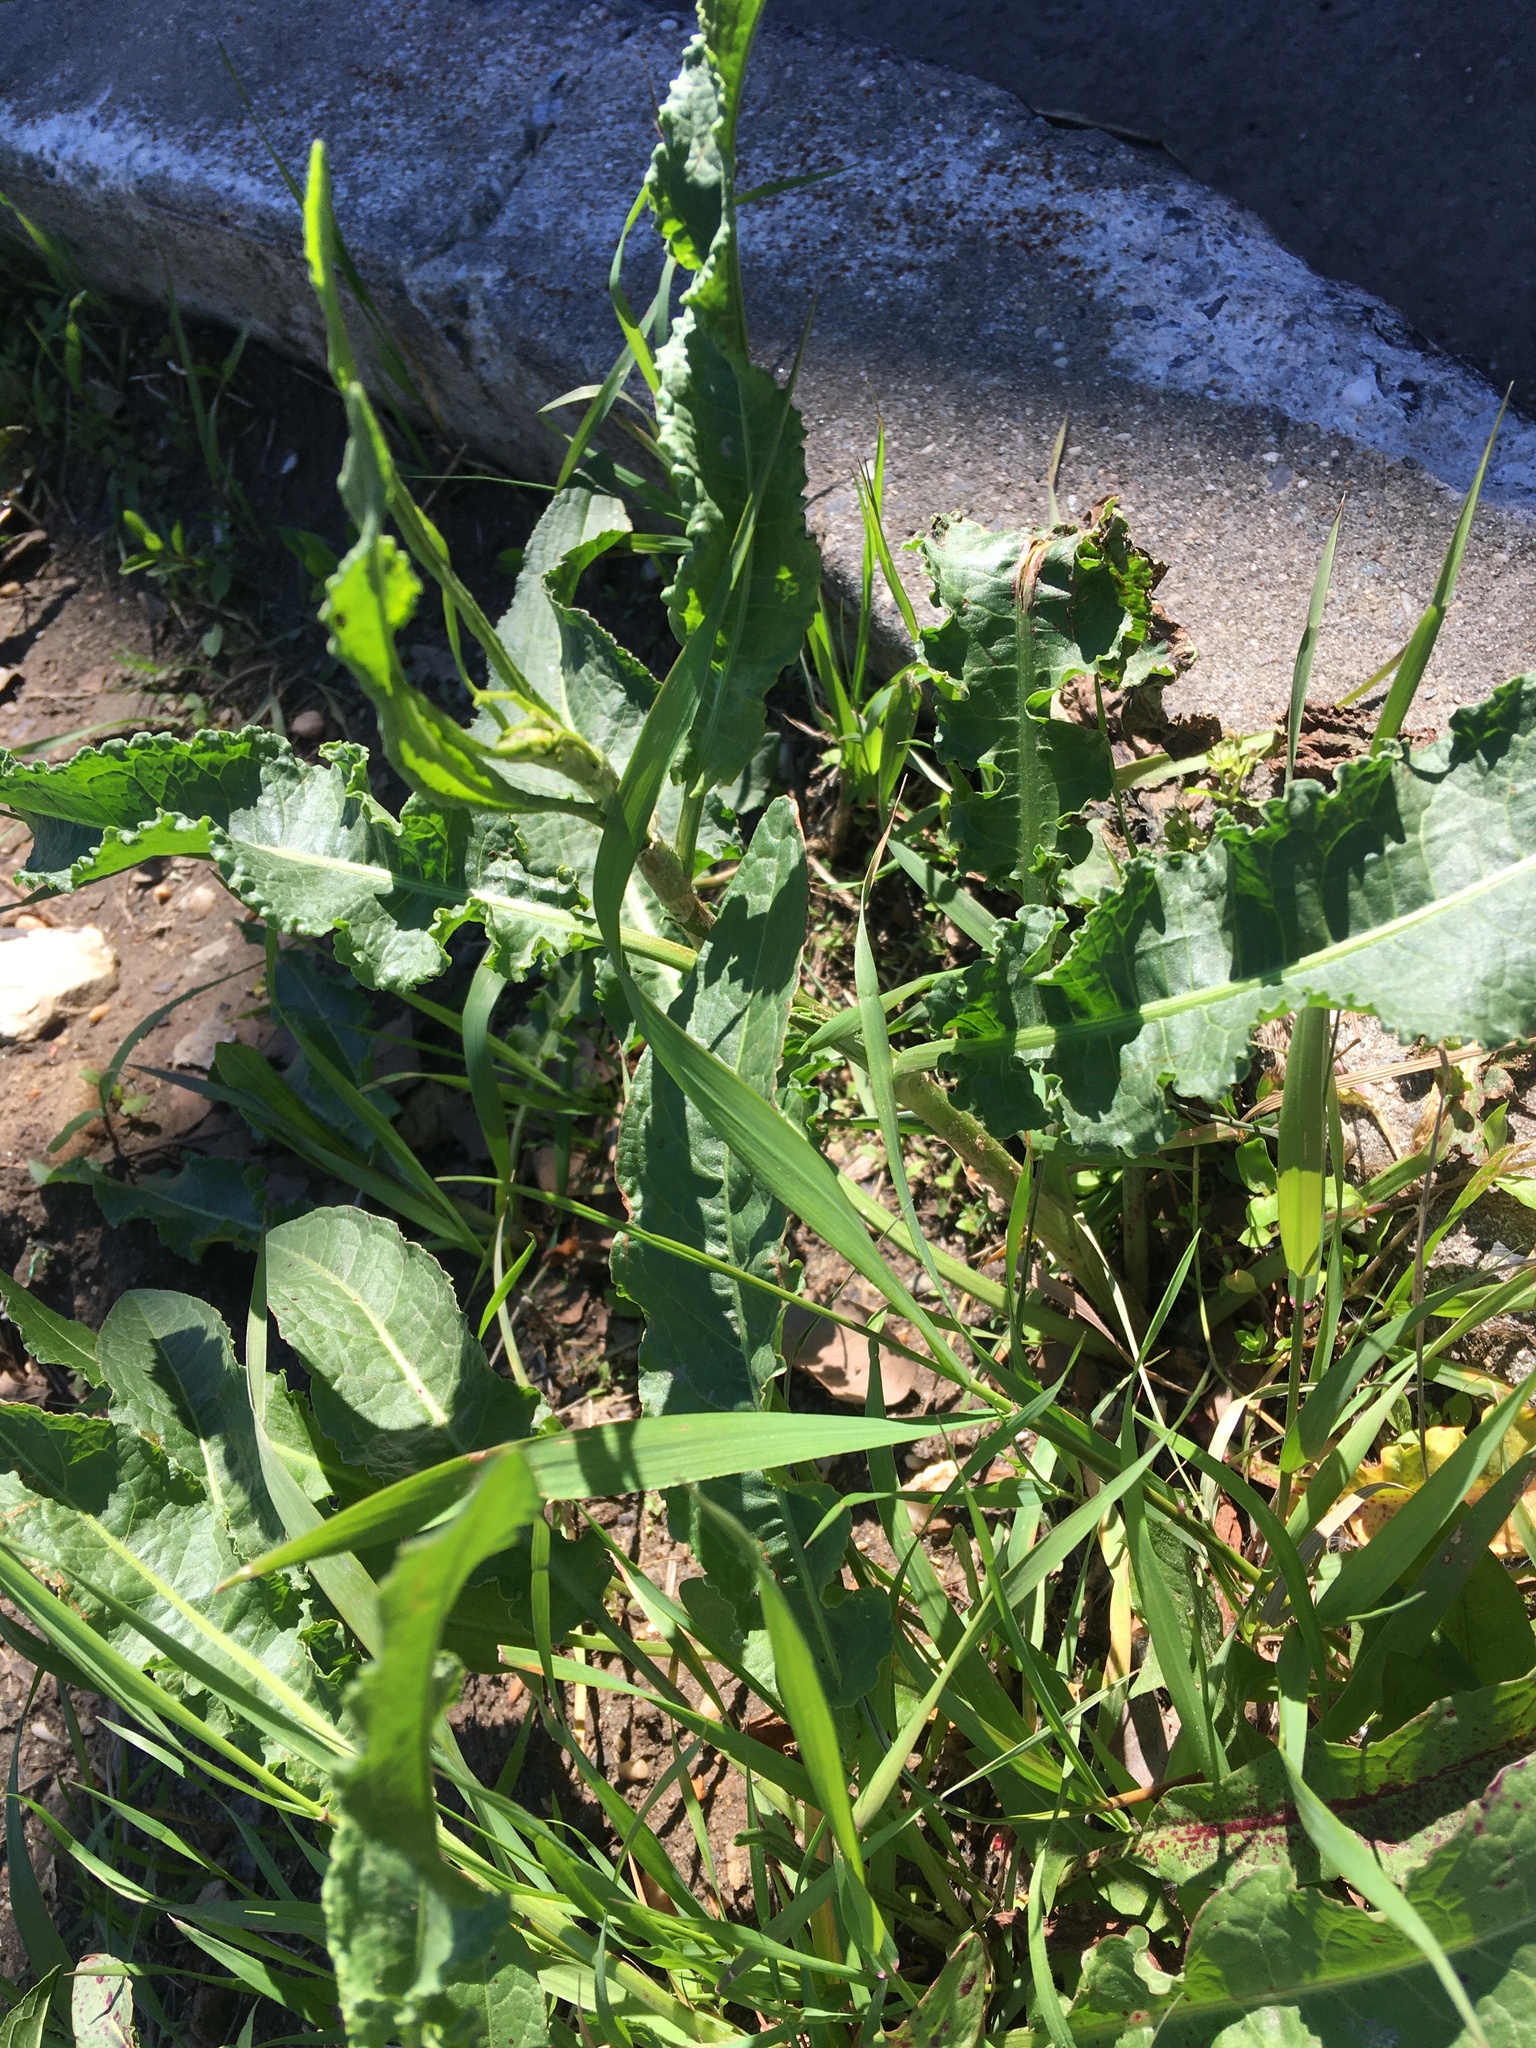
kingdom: Plantae
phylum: Tracheophyta
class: Magnoliopsida
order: Caryophyllales
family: Polygonaceae
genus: Rumex
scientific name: Rumex crispus
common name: Curled dock
